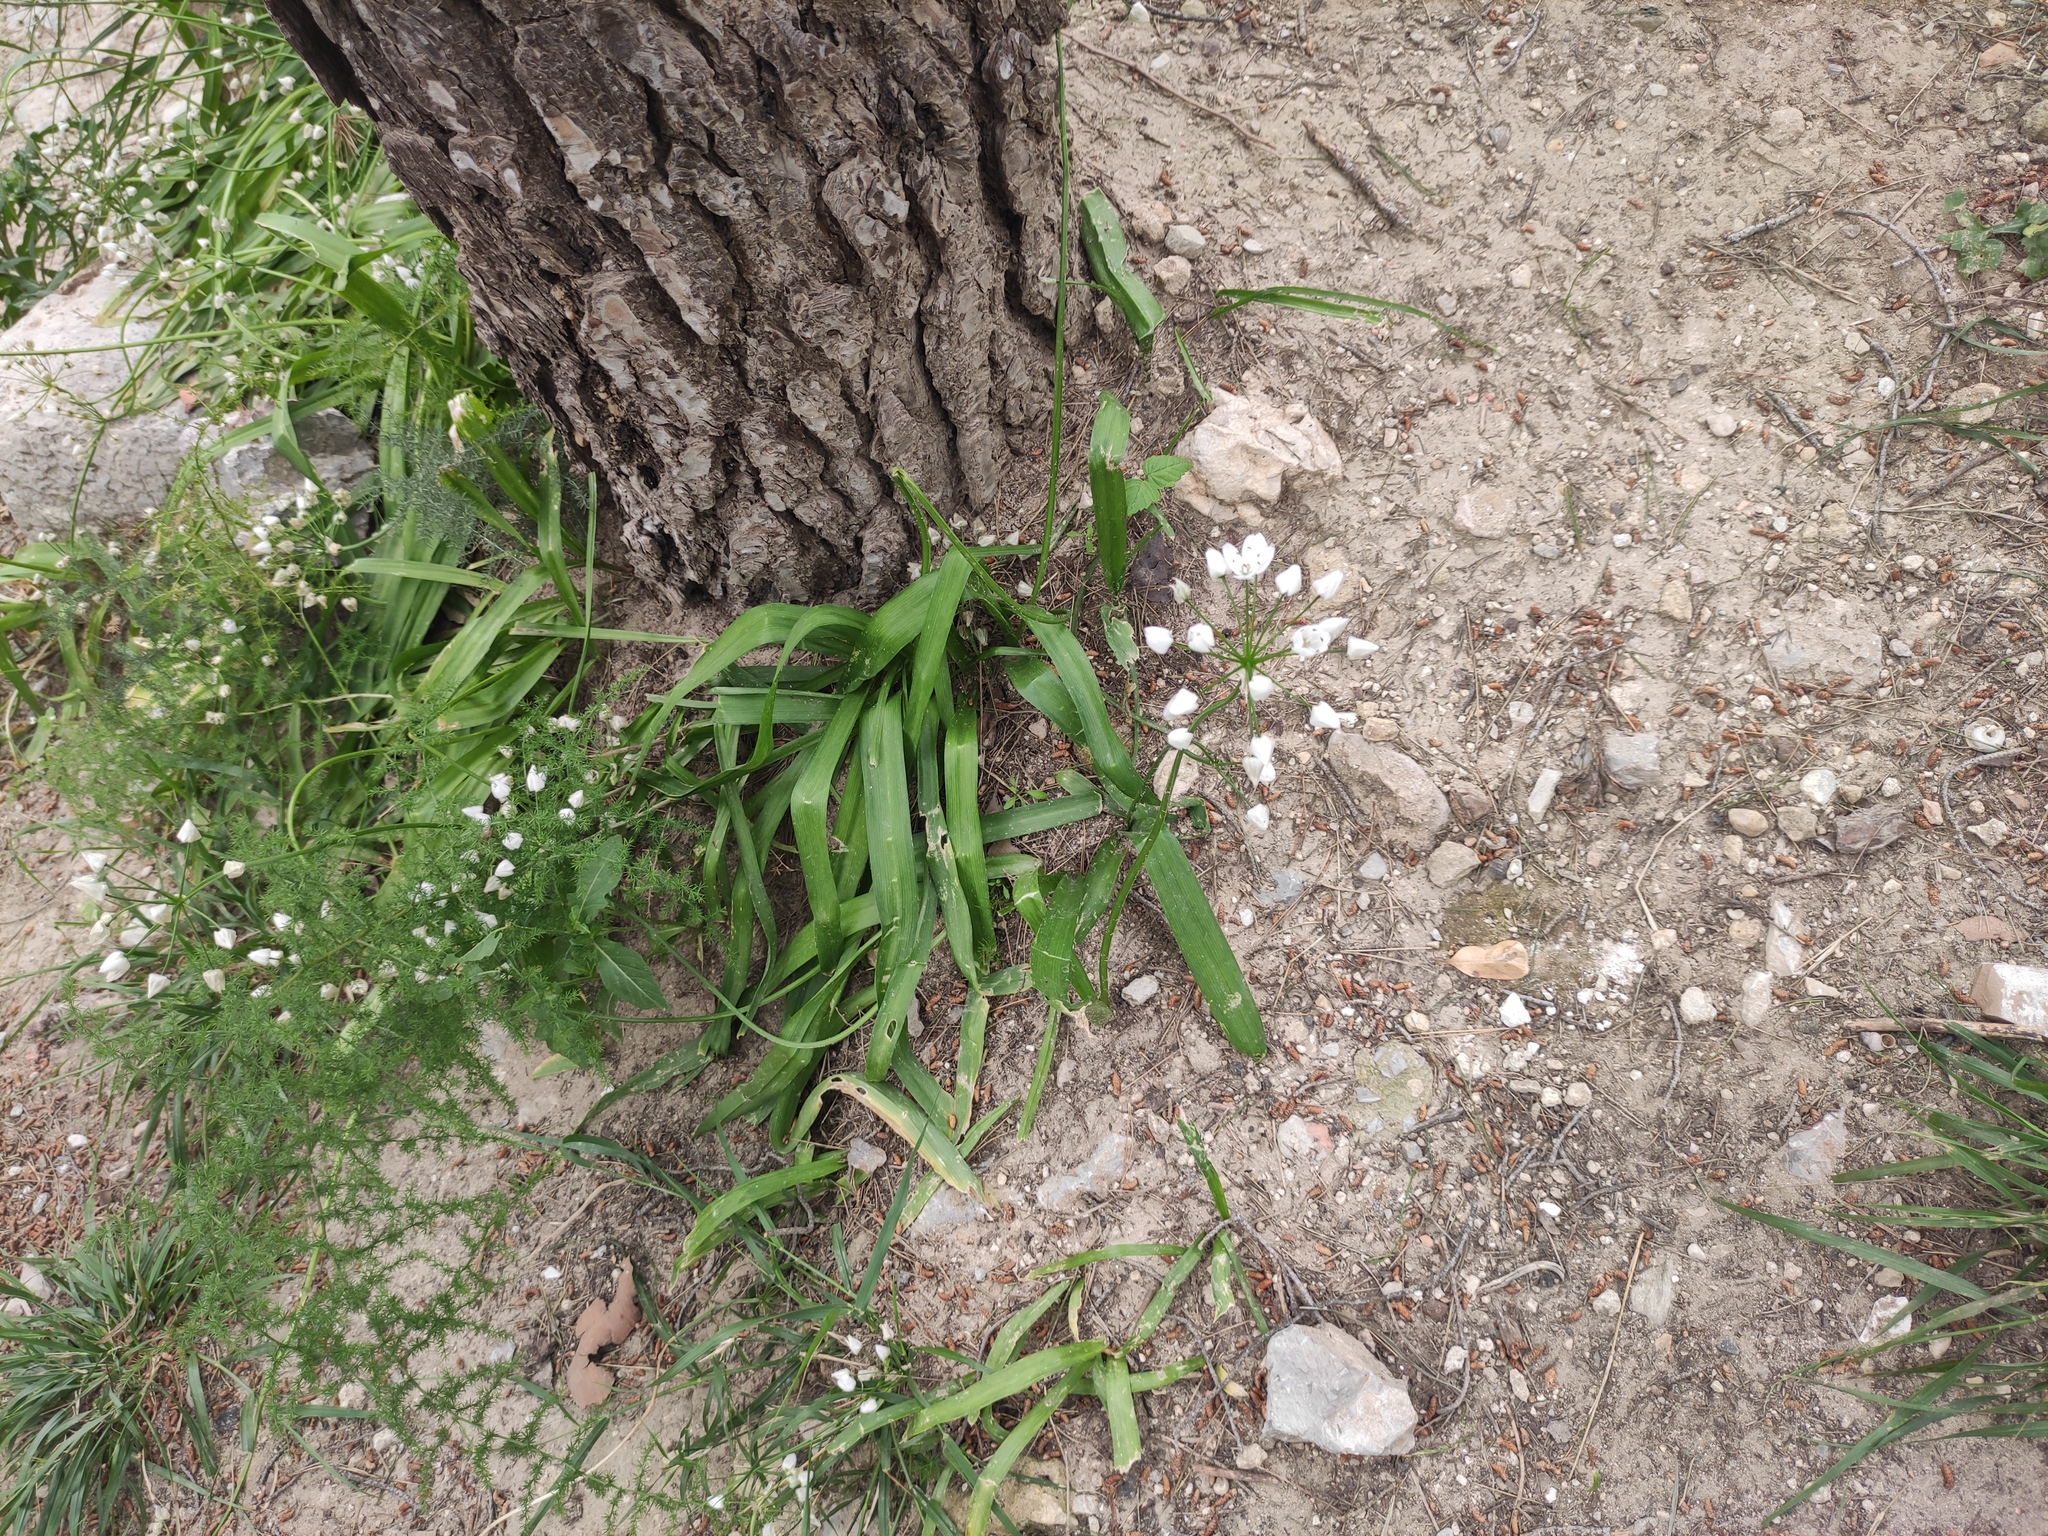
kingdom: Plantae
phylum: Tracheophyta
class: Liliopsida
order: Asparagales
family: Amaryllidaceae
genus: Allium
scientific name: Allium neapolitanum
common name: Neapolitan garlic
